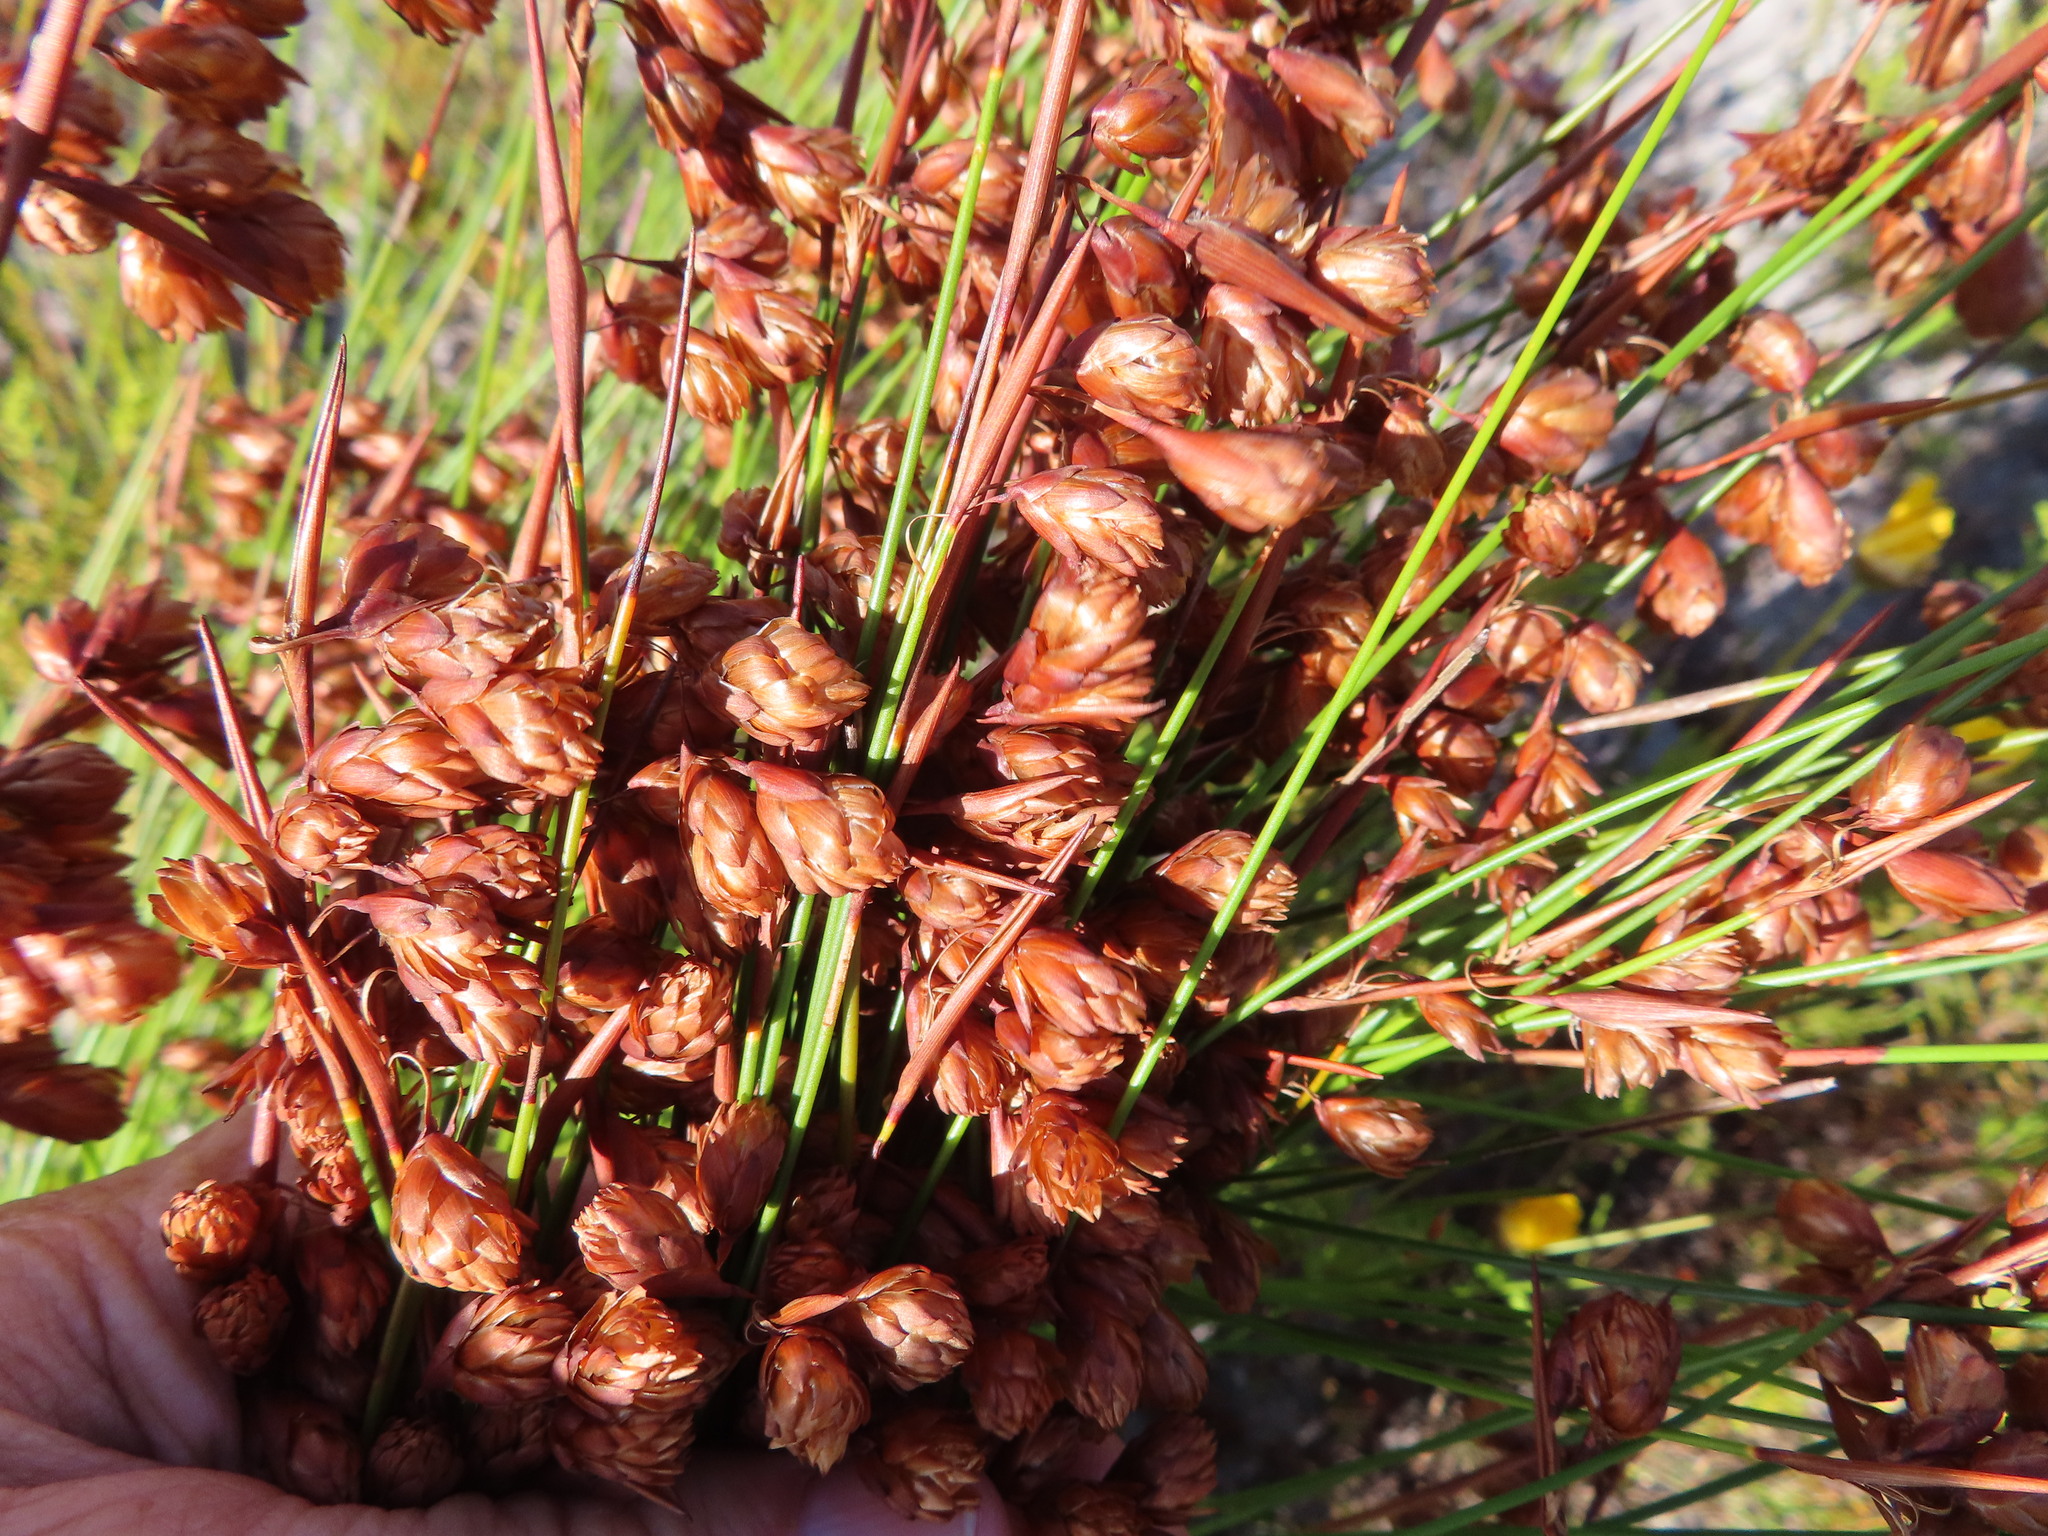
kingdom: Plantae
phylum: Tracheophyta
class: Liliopsida
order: Poales
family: Restionaceae
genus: Staberoha
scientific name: Staberoha cernua
